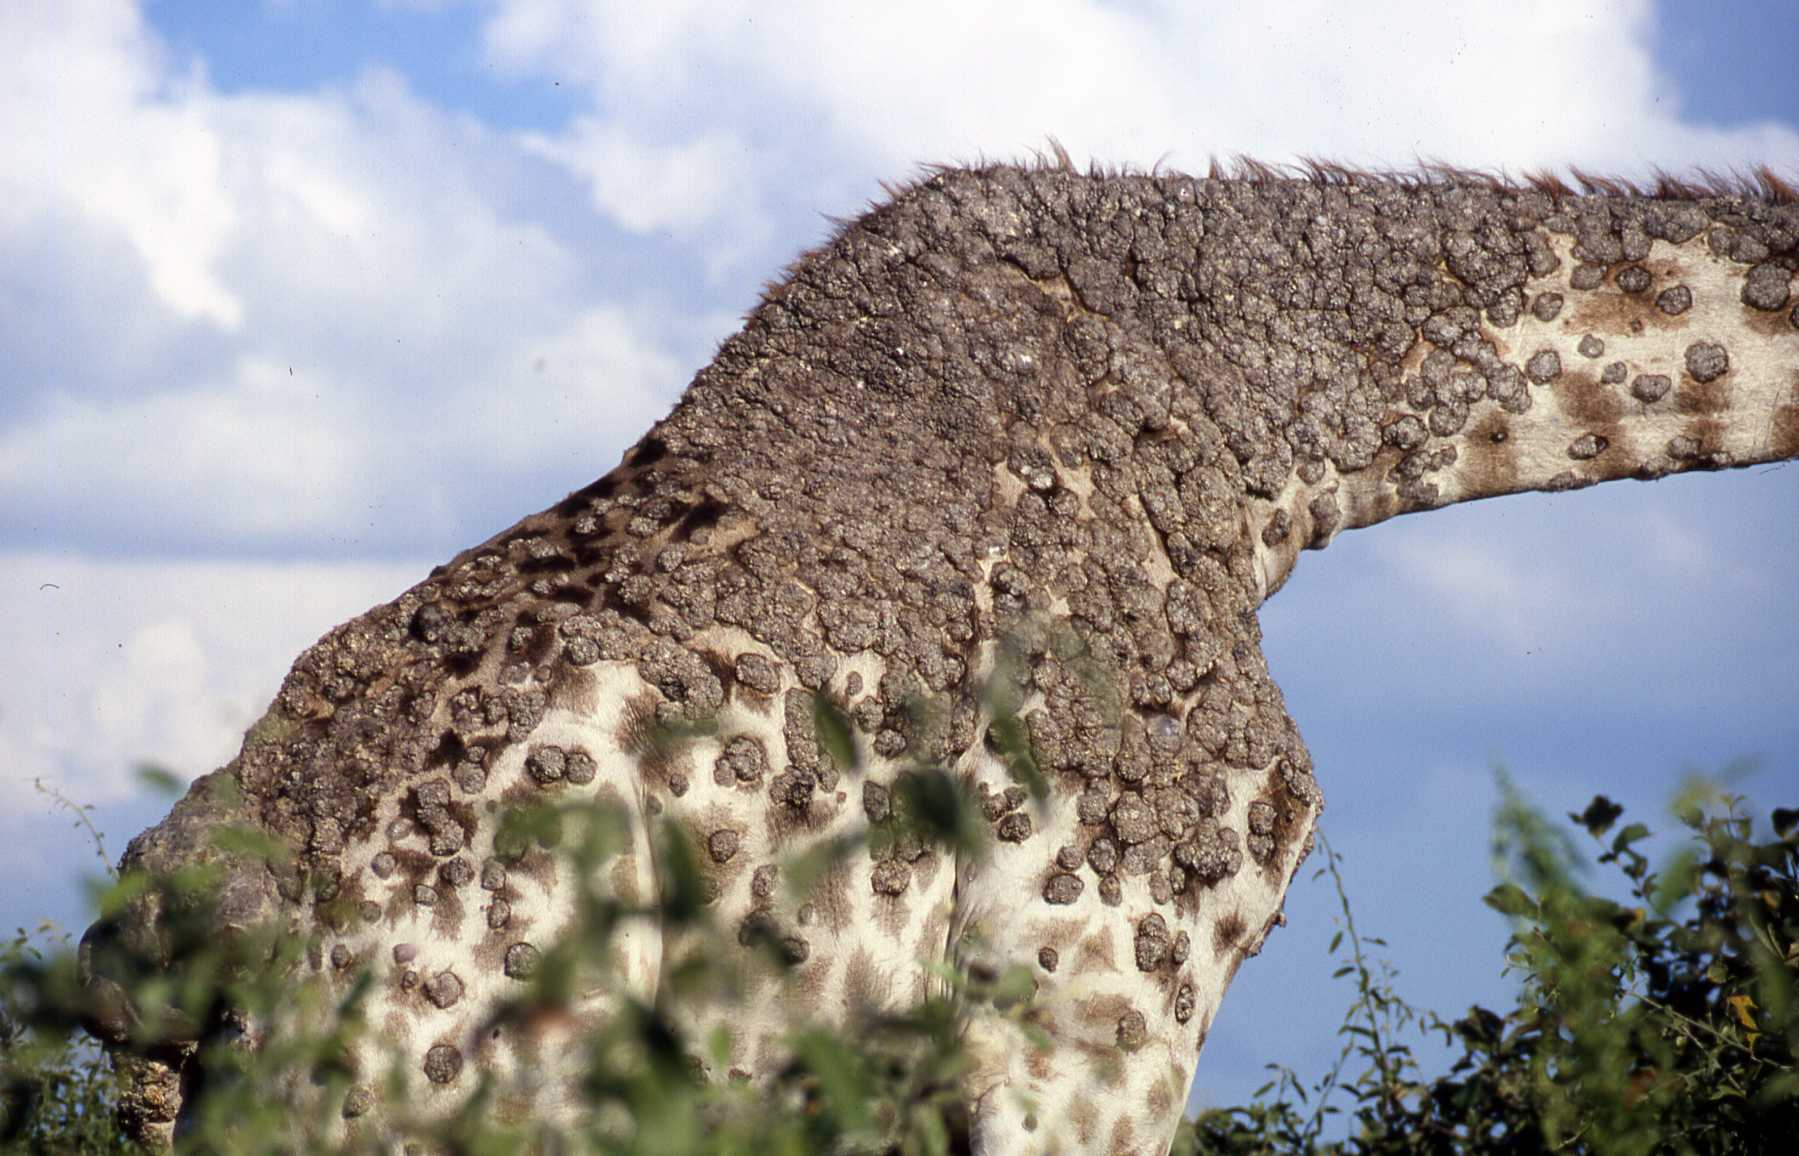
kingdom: Animalia
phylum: Chordata
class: Mammalia
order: Artiodactyla
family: Giraffidae
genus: Giraffa
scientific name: Giraffa giraffa
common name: Southern giraffe
